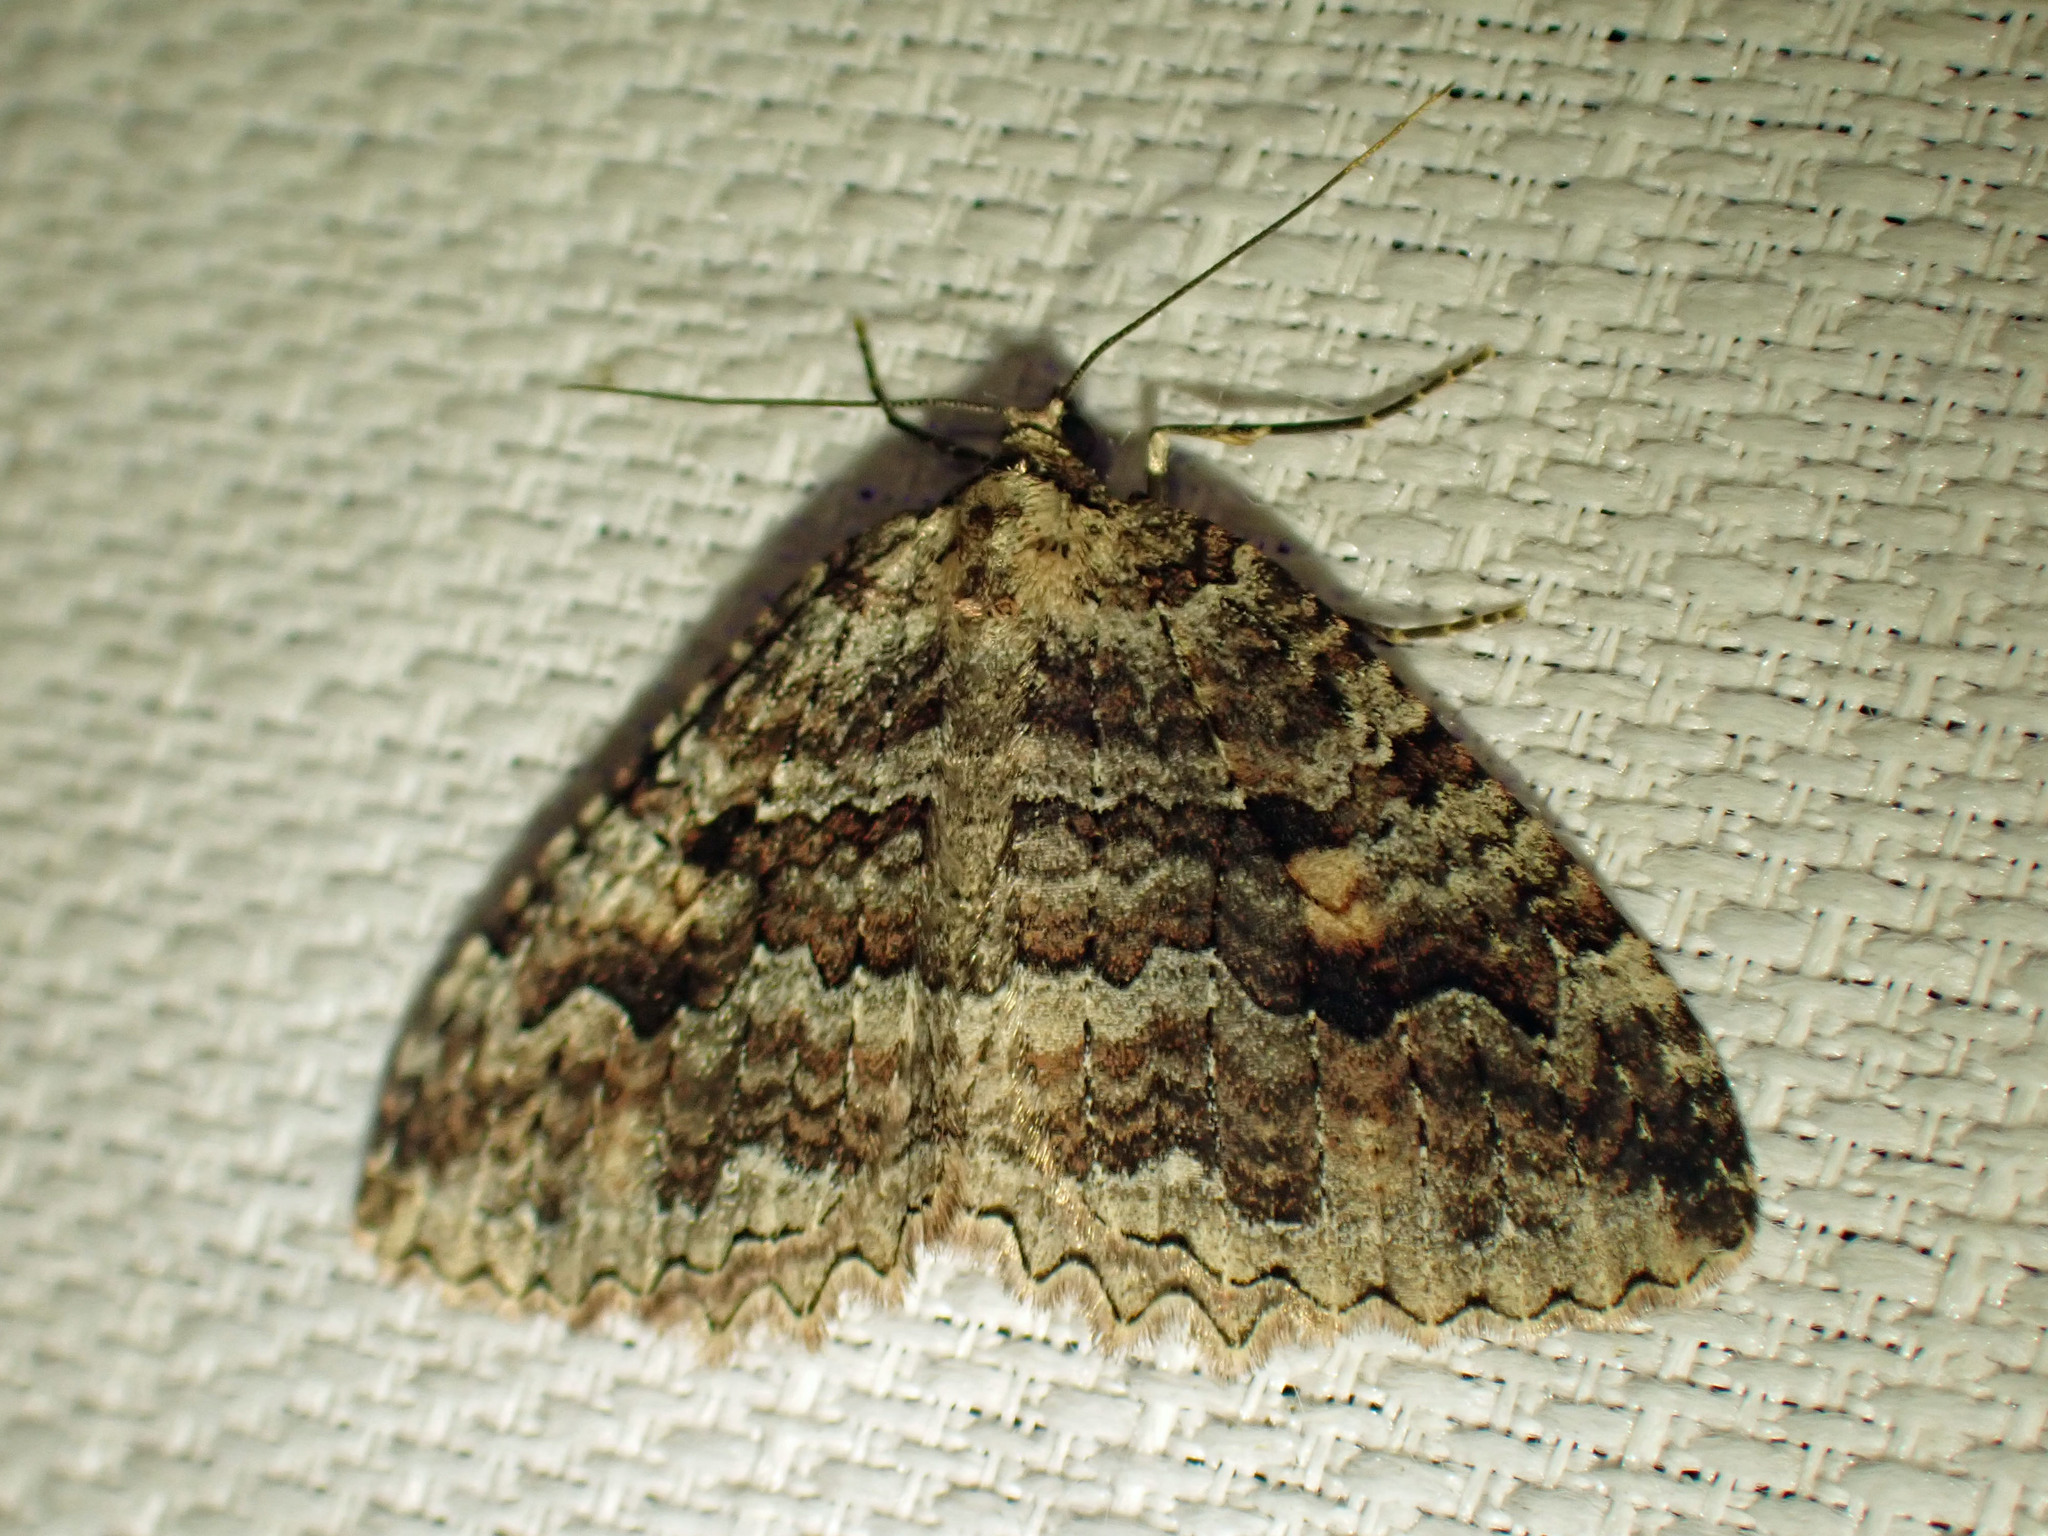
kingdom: Animalia
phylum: Arthropoda
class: Insecta
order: Lepidoptera
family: Geometridae
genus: Triphosa
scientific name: Triphosa haesitata
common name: Tissue moth
